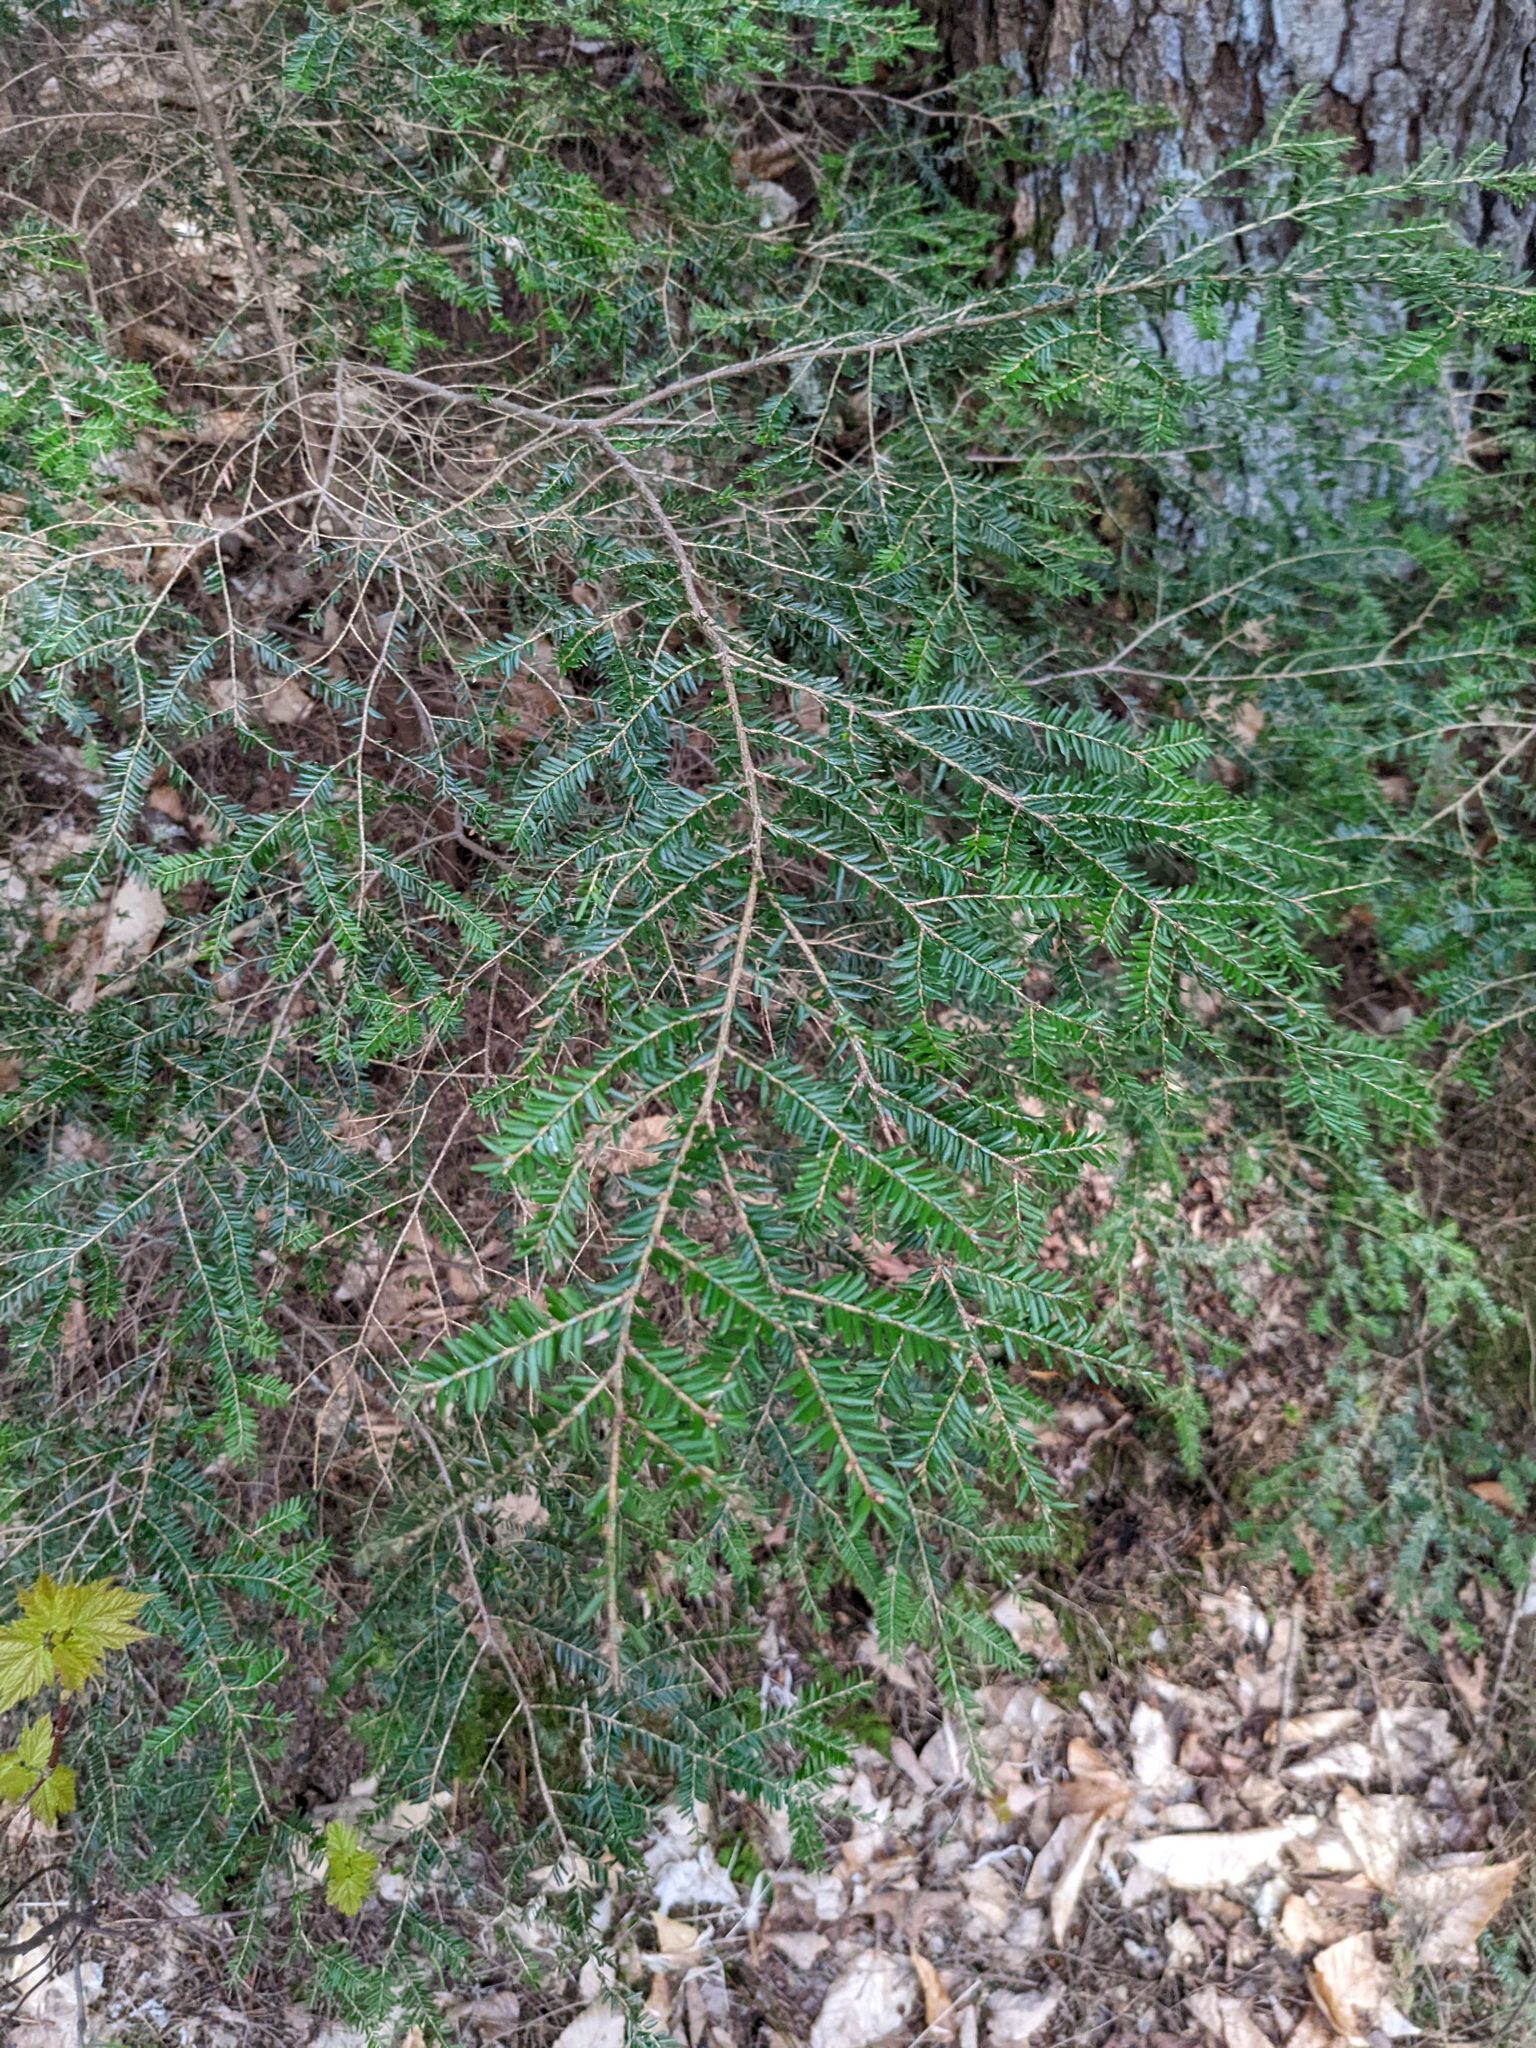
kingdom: Plantae
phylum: Tracheophyta
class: Pinopsida
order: Pinales
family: Pinaceae
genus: Tsuga
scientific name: Tsuga canadensis
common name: Eastern hemlock
